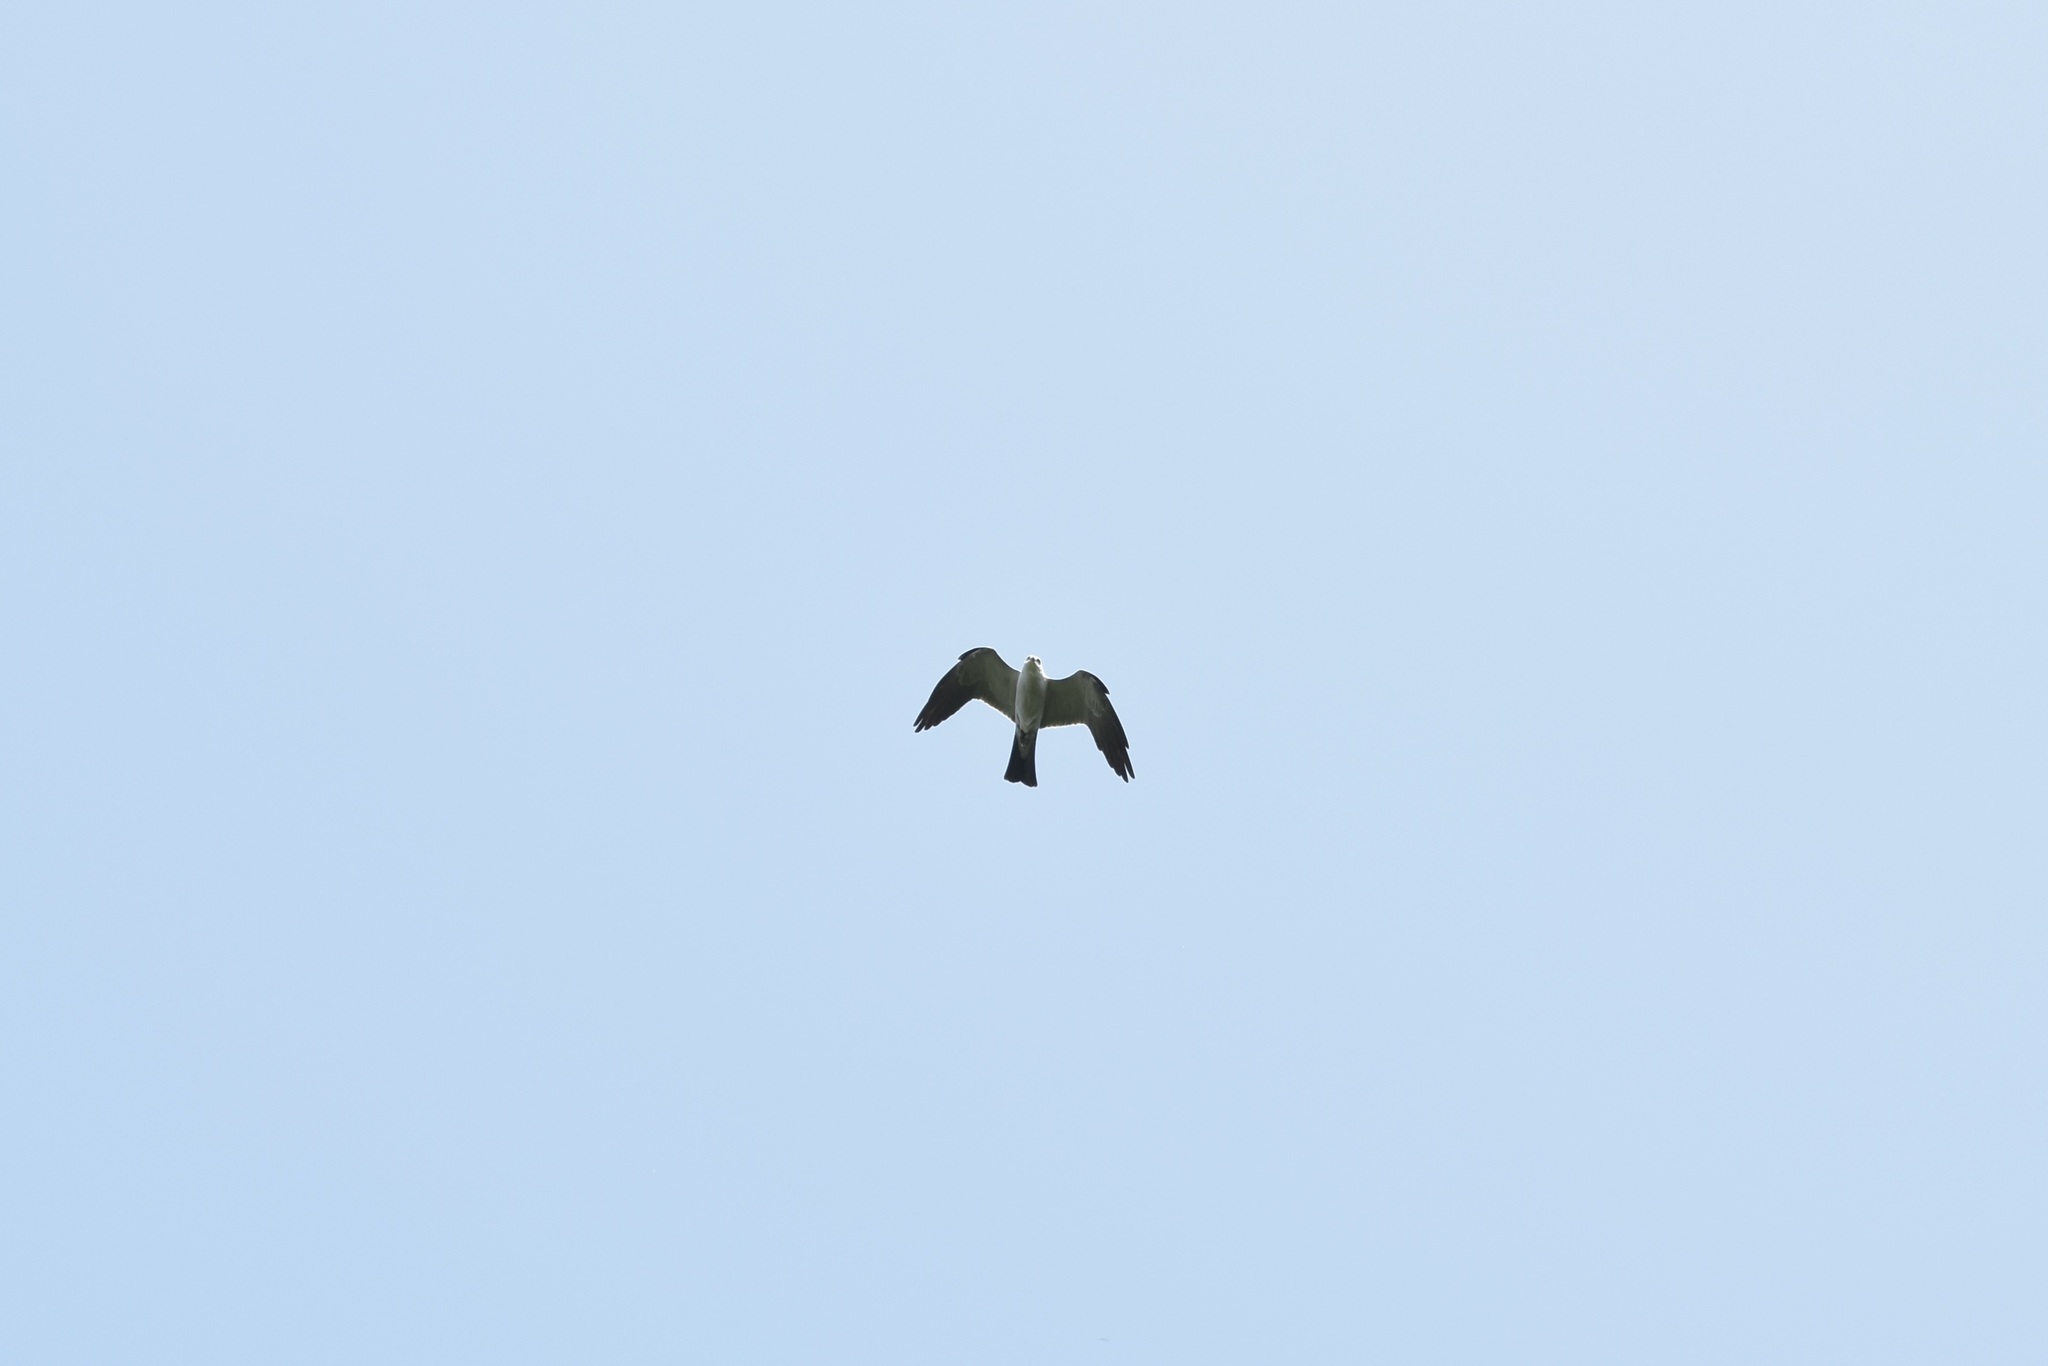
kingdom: Animalia
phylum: Chordata
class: Aves
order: Accipitriformes
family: Accipitridae
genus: Ictinia
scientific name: Ictinia mississippiensis
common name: Mississippi kite
